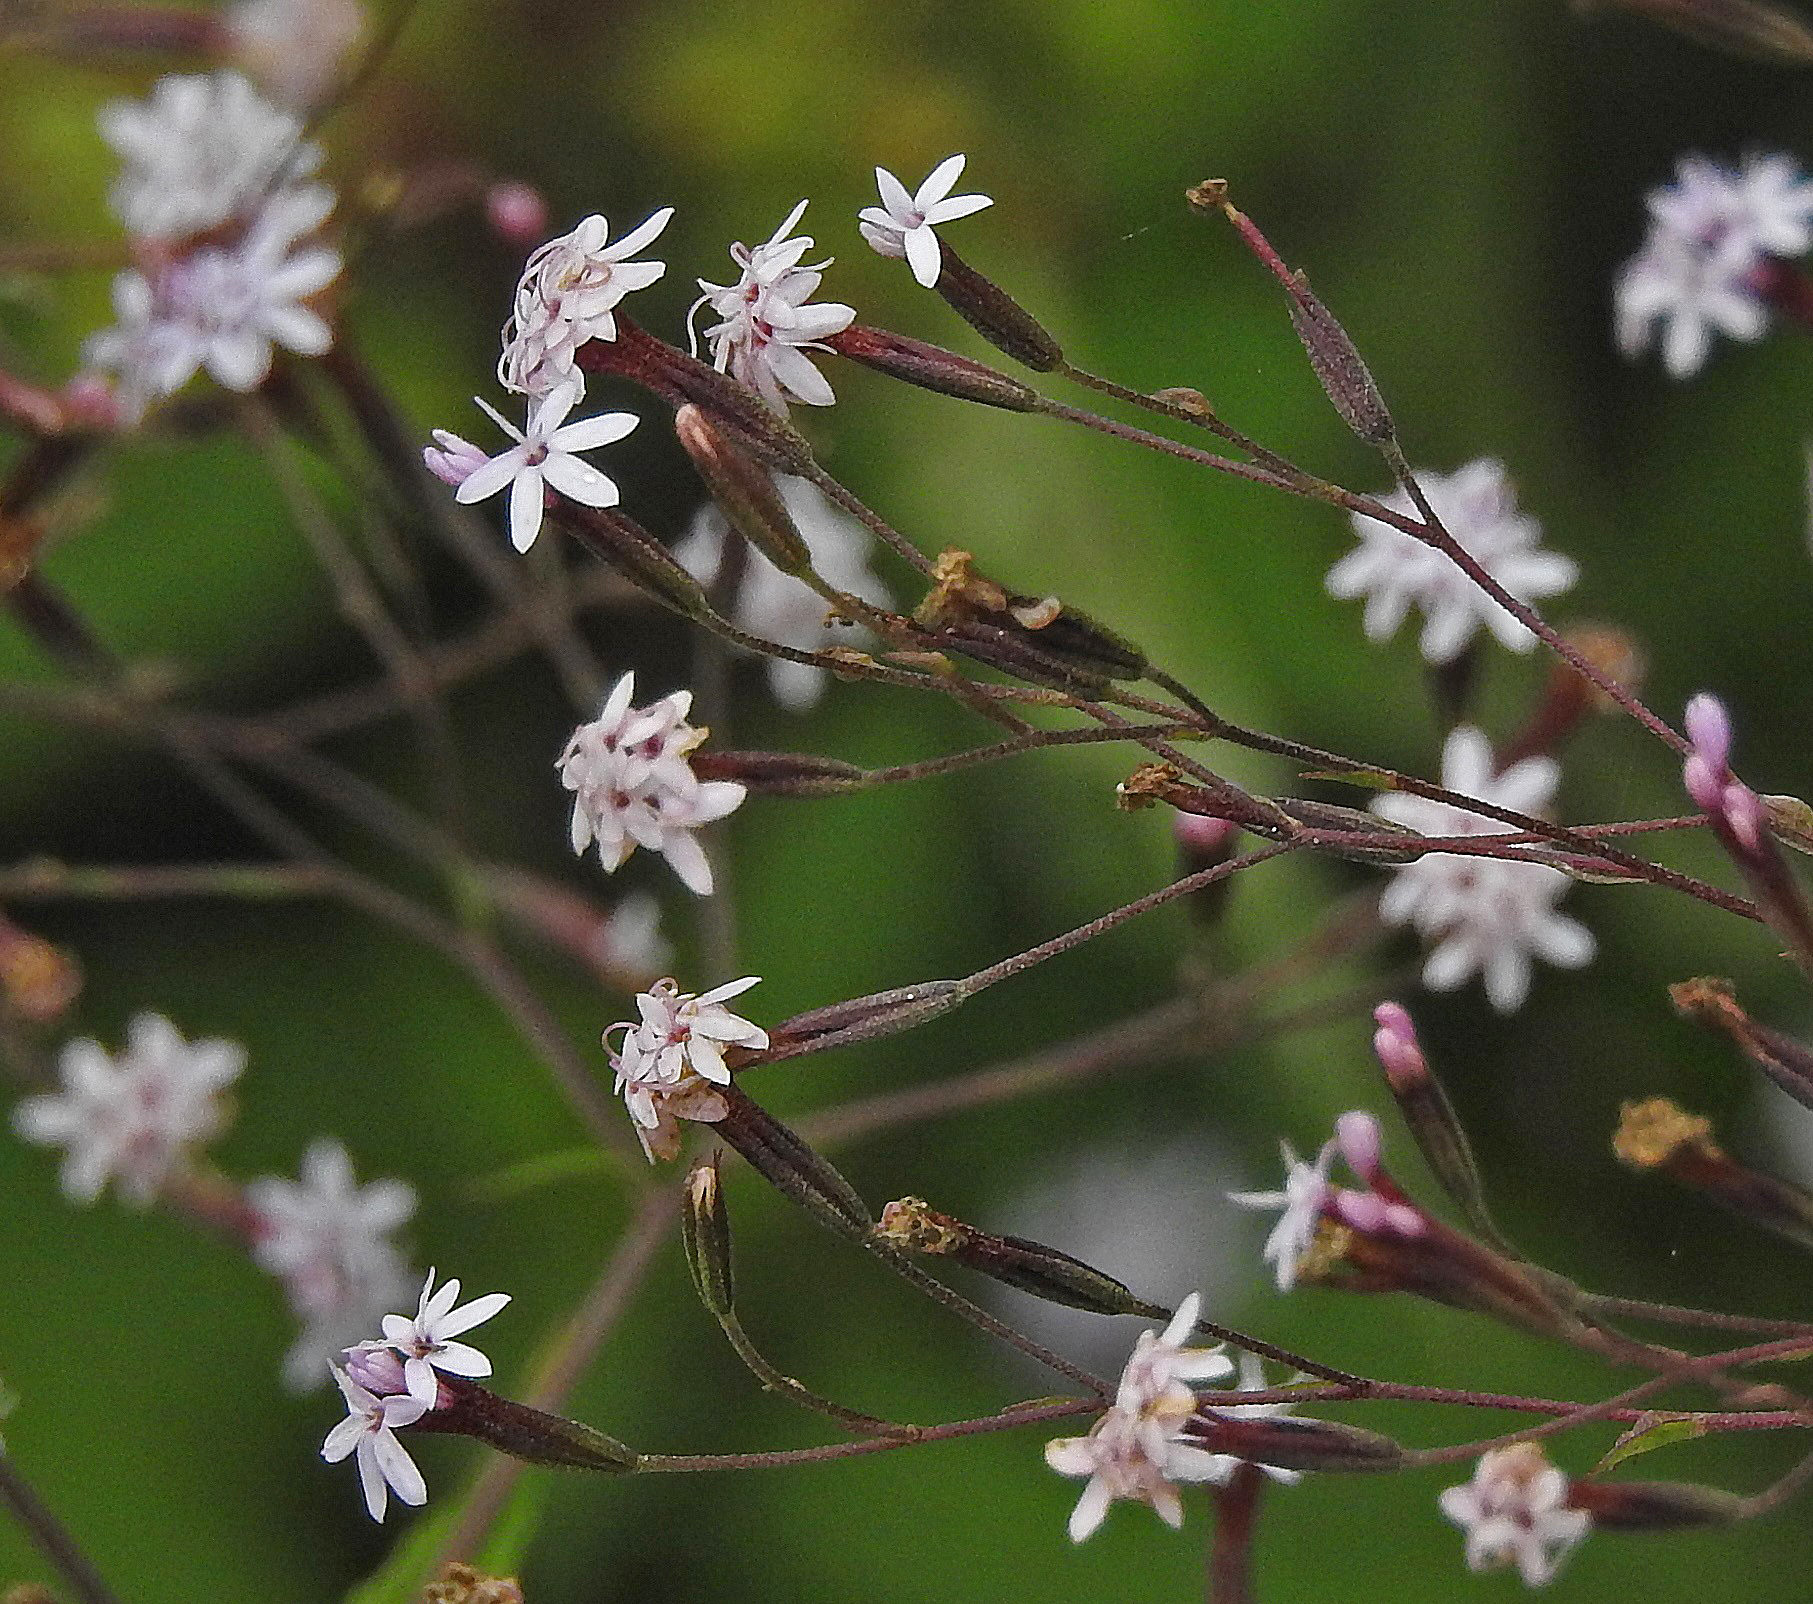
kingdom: Plantae
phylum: Tracheophyta
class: Magnoliopsida
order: Asterales
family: Asteraceae
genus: Stevia
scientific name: Stevia breviaristata
